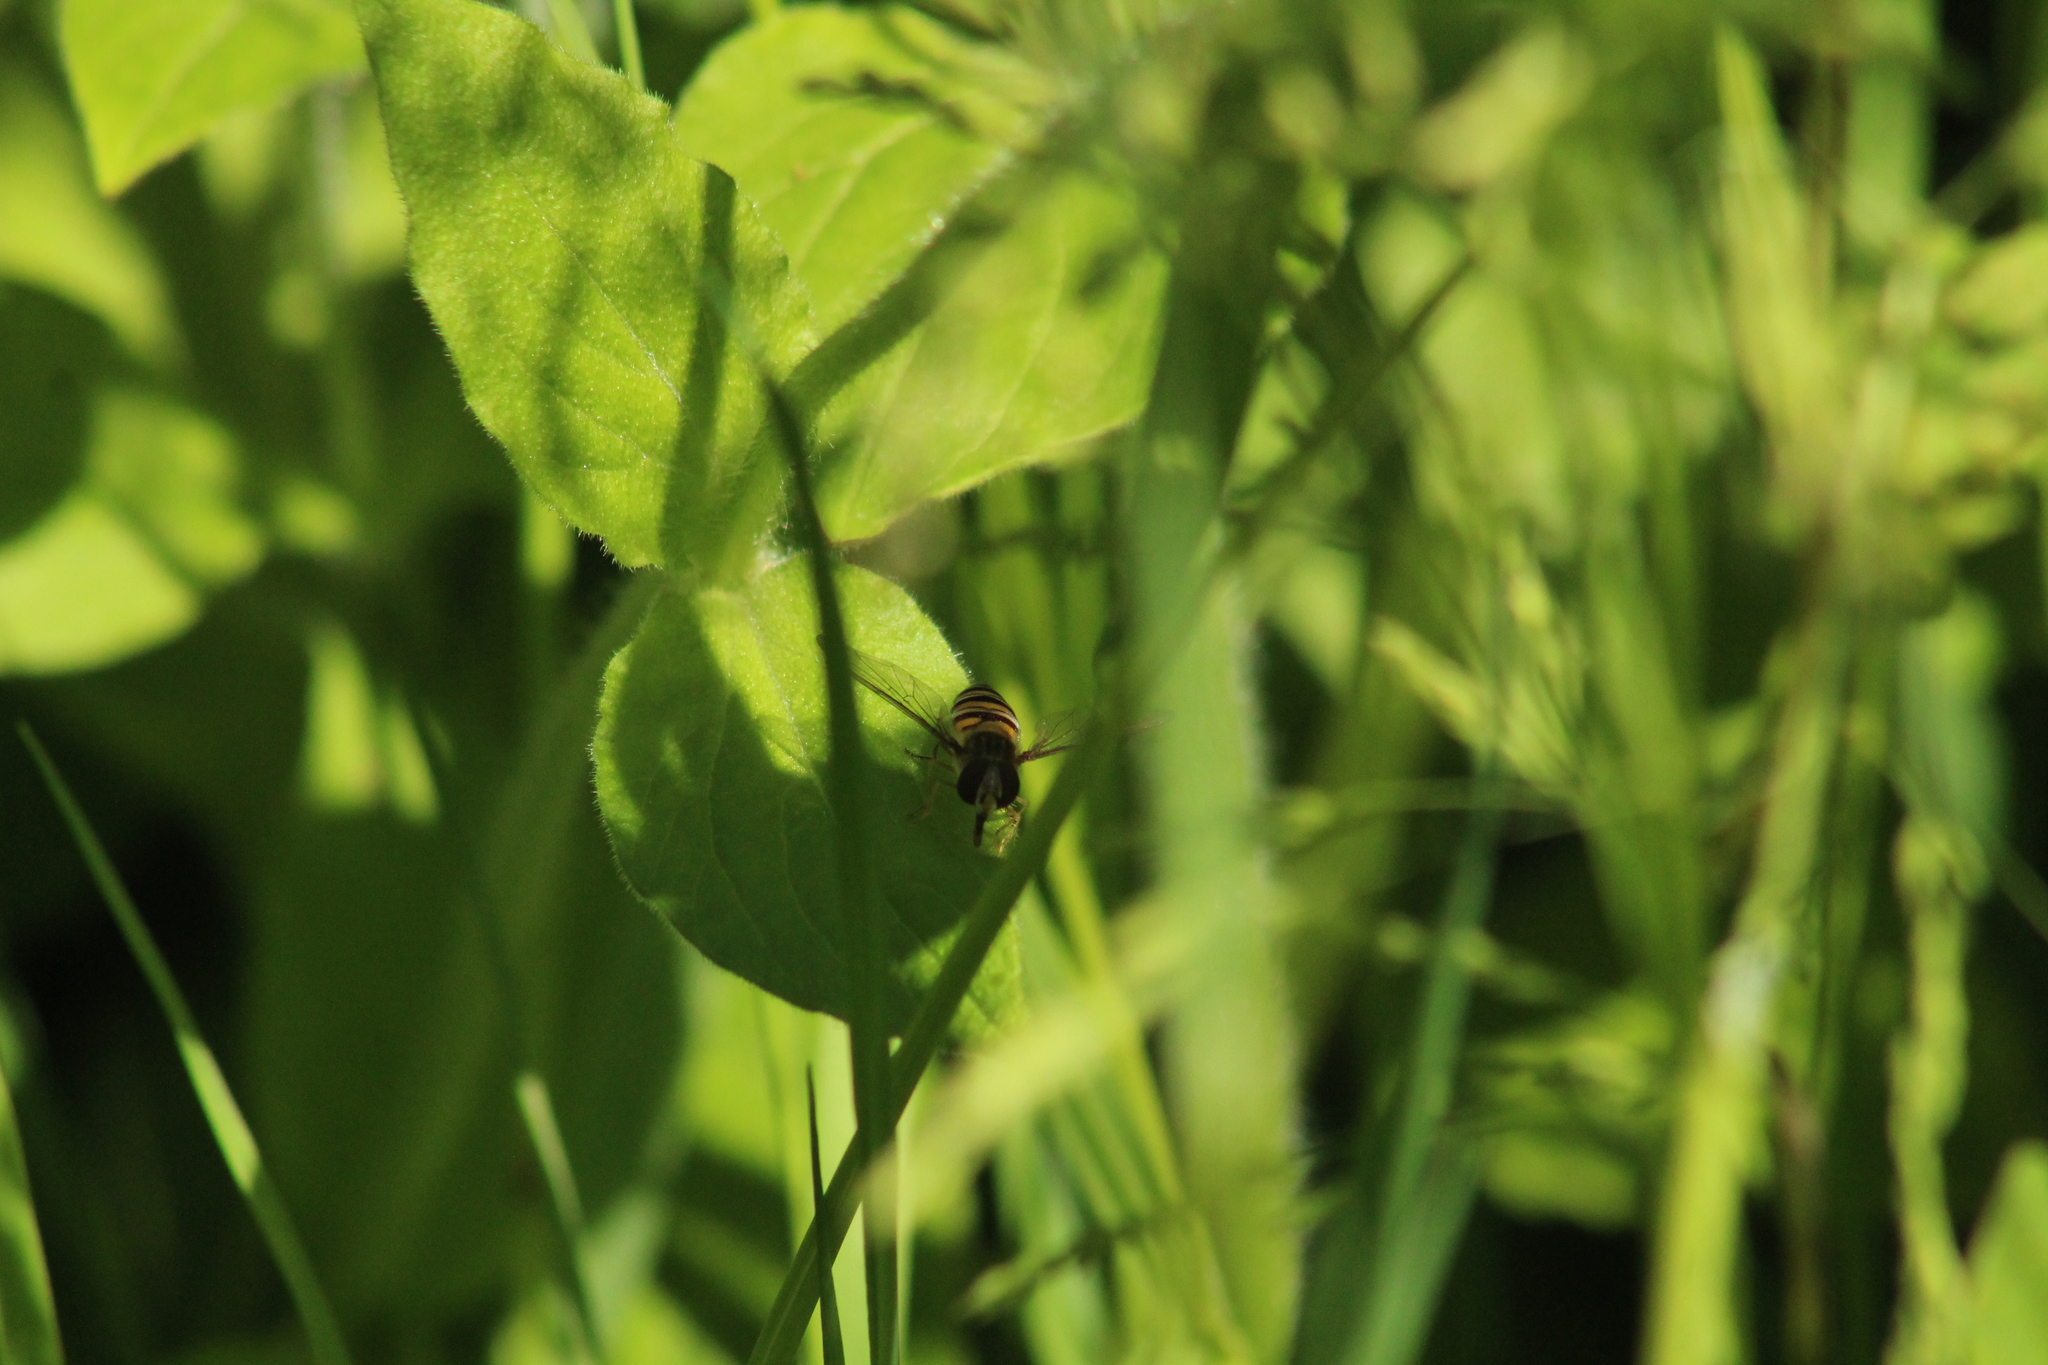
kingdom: Animalia
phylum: Arthropoda
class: Insecta
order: Diptera
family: Syrphidae
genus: Episyrphus
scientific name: Episyrphus balteatus
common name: Marmalade hoverfly
